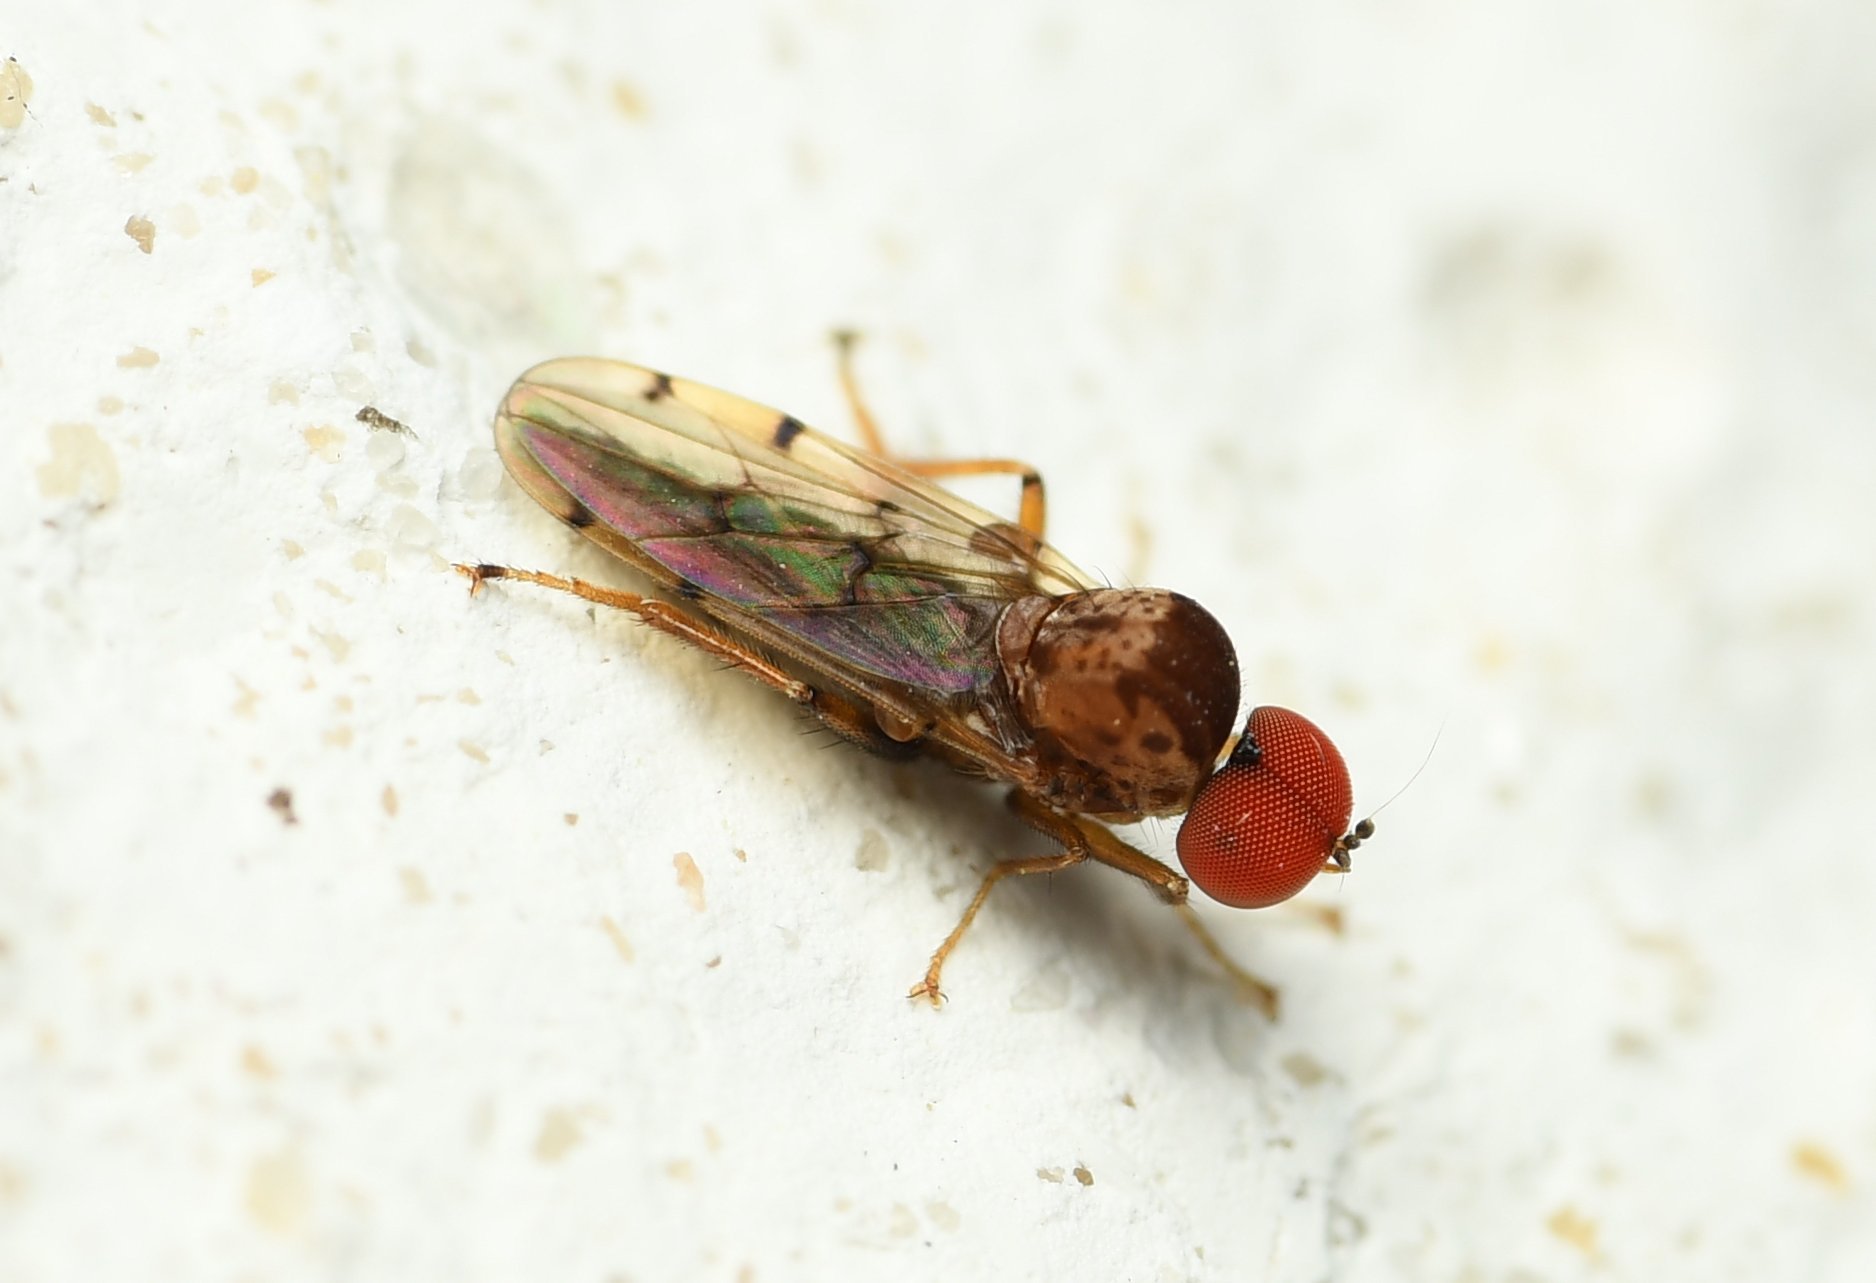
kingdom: Animalia
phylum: Arthropoda
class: Insecta
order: Diptera
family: Hybotidae
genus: Syneches
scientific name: Syneches simplex
